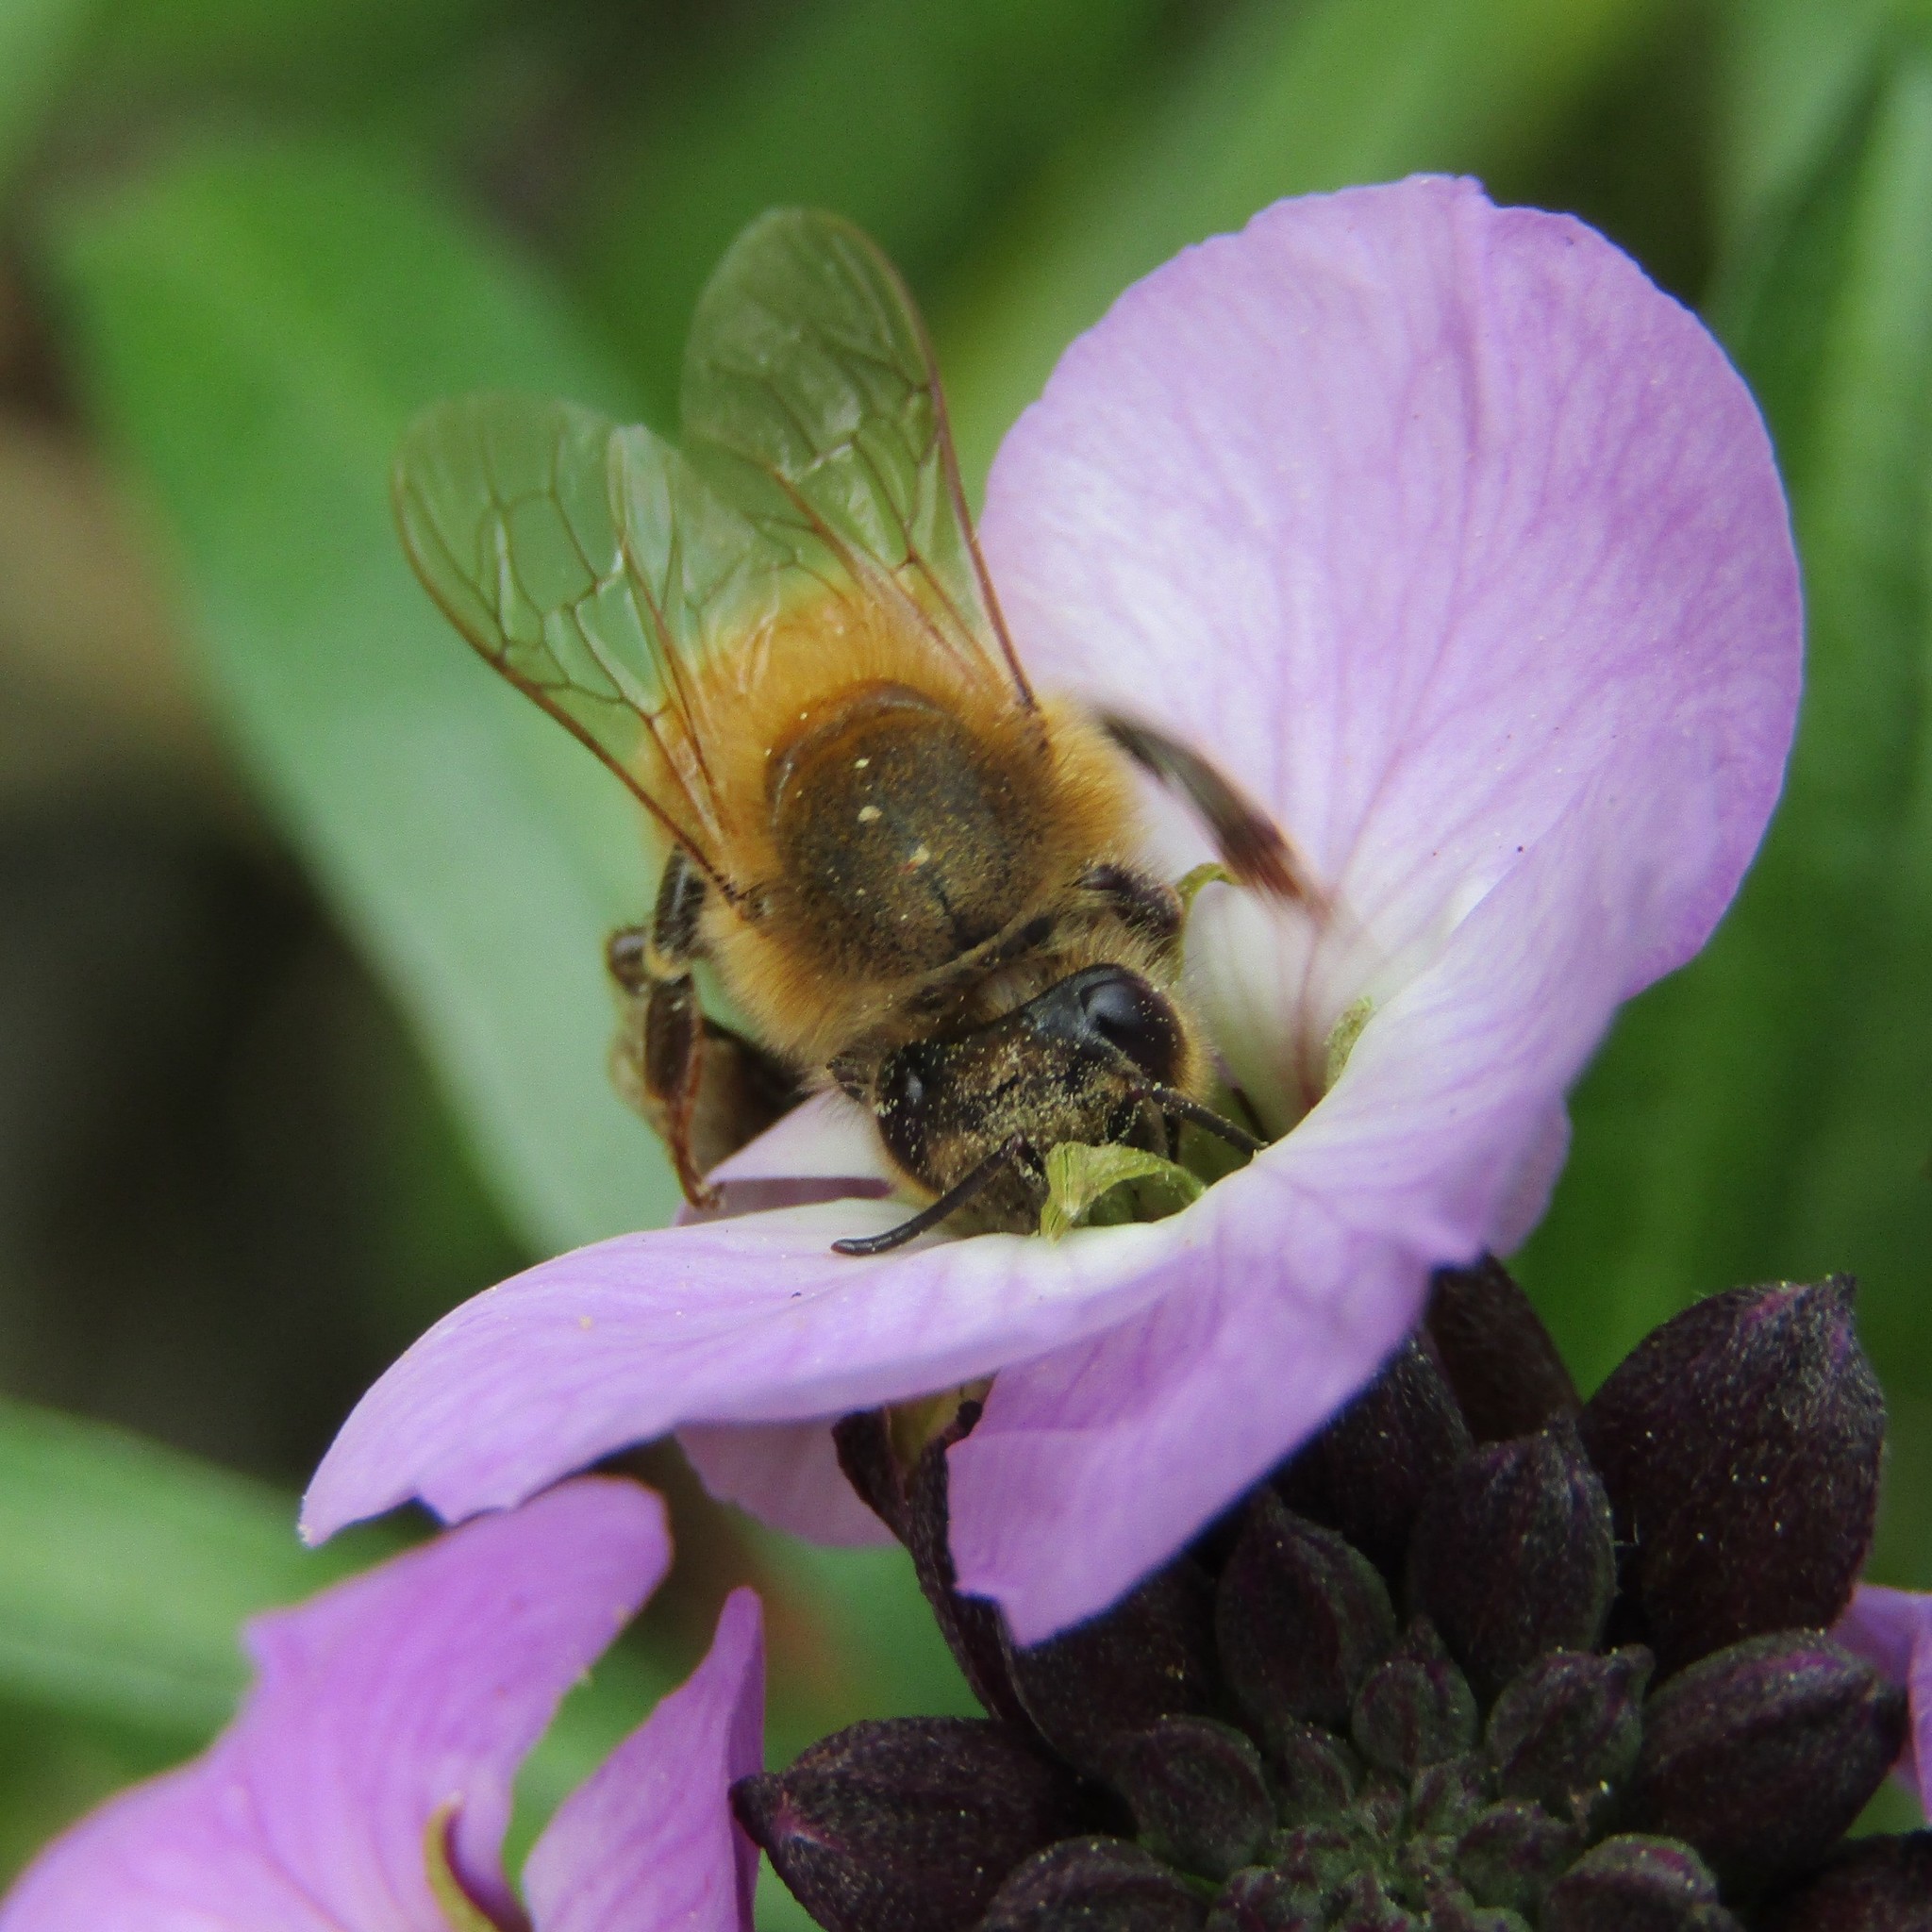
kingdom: Animalia
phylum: Arthropoda
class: Insecta
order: Hymenoptera
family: Apidae
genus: Apis
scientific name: Apis mellifera
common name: Honey bee
